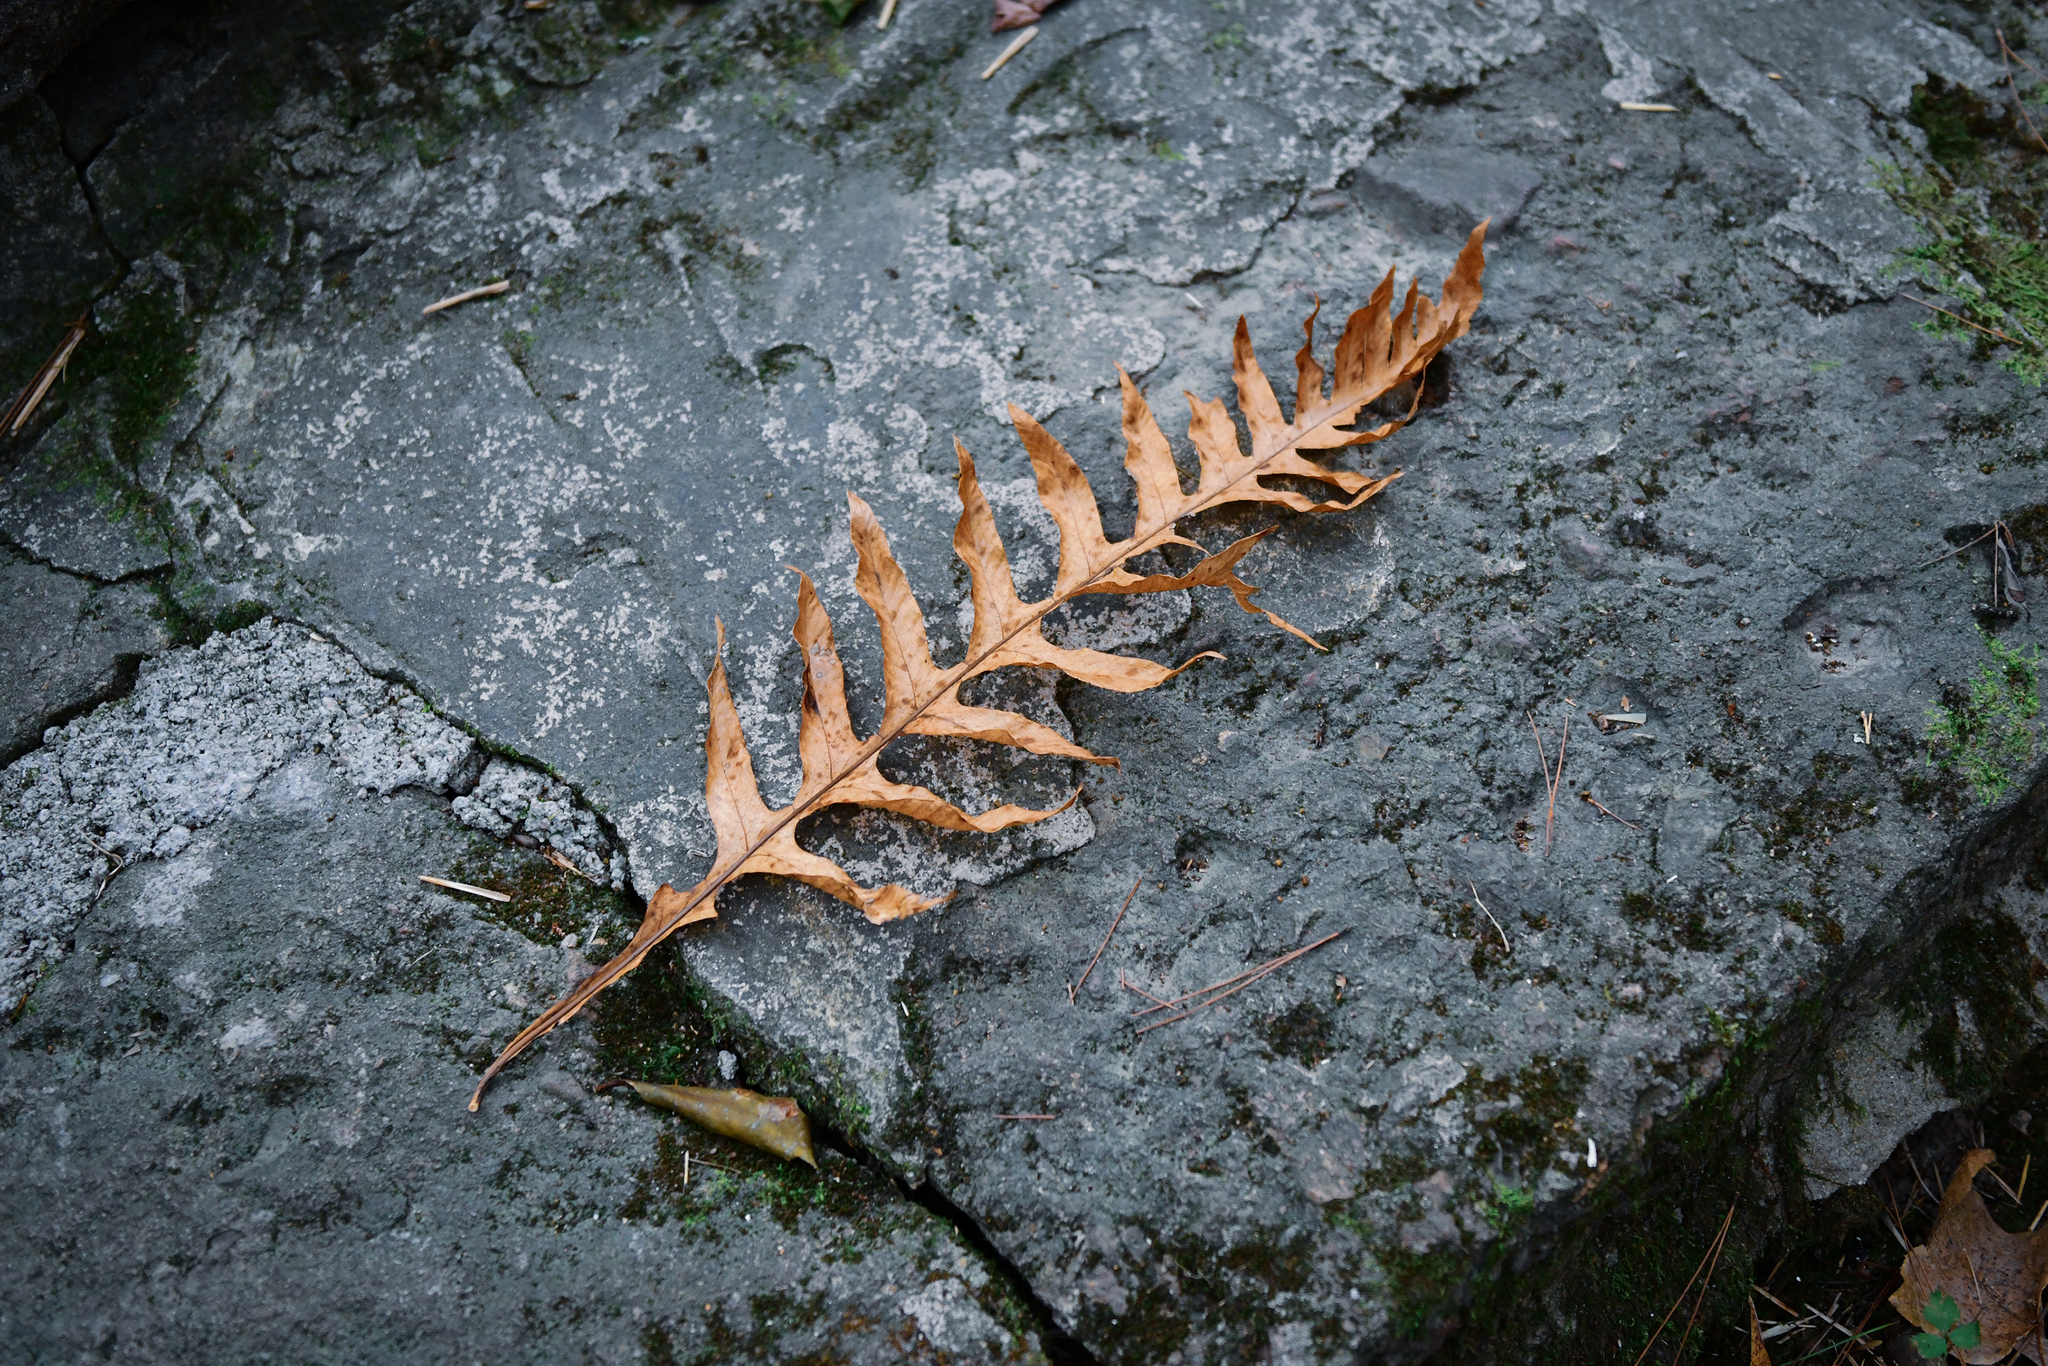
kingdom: Plantae
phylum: Tracheophyta
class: Polypodiopsida
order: Polypodiales
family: Polypodiaceae
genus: Drynaria
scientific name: Drynaria roosii
